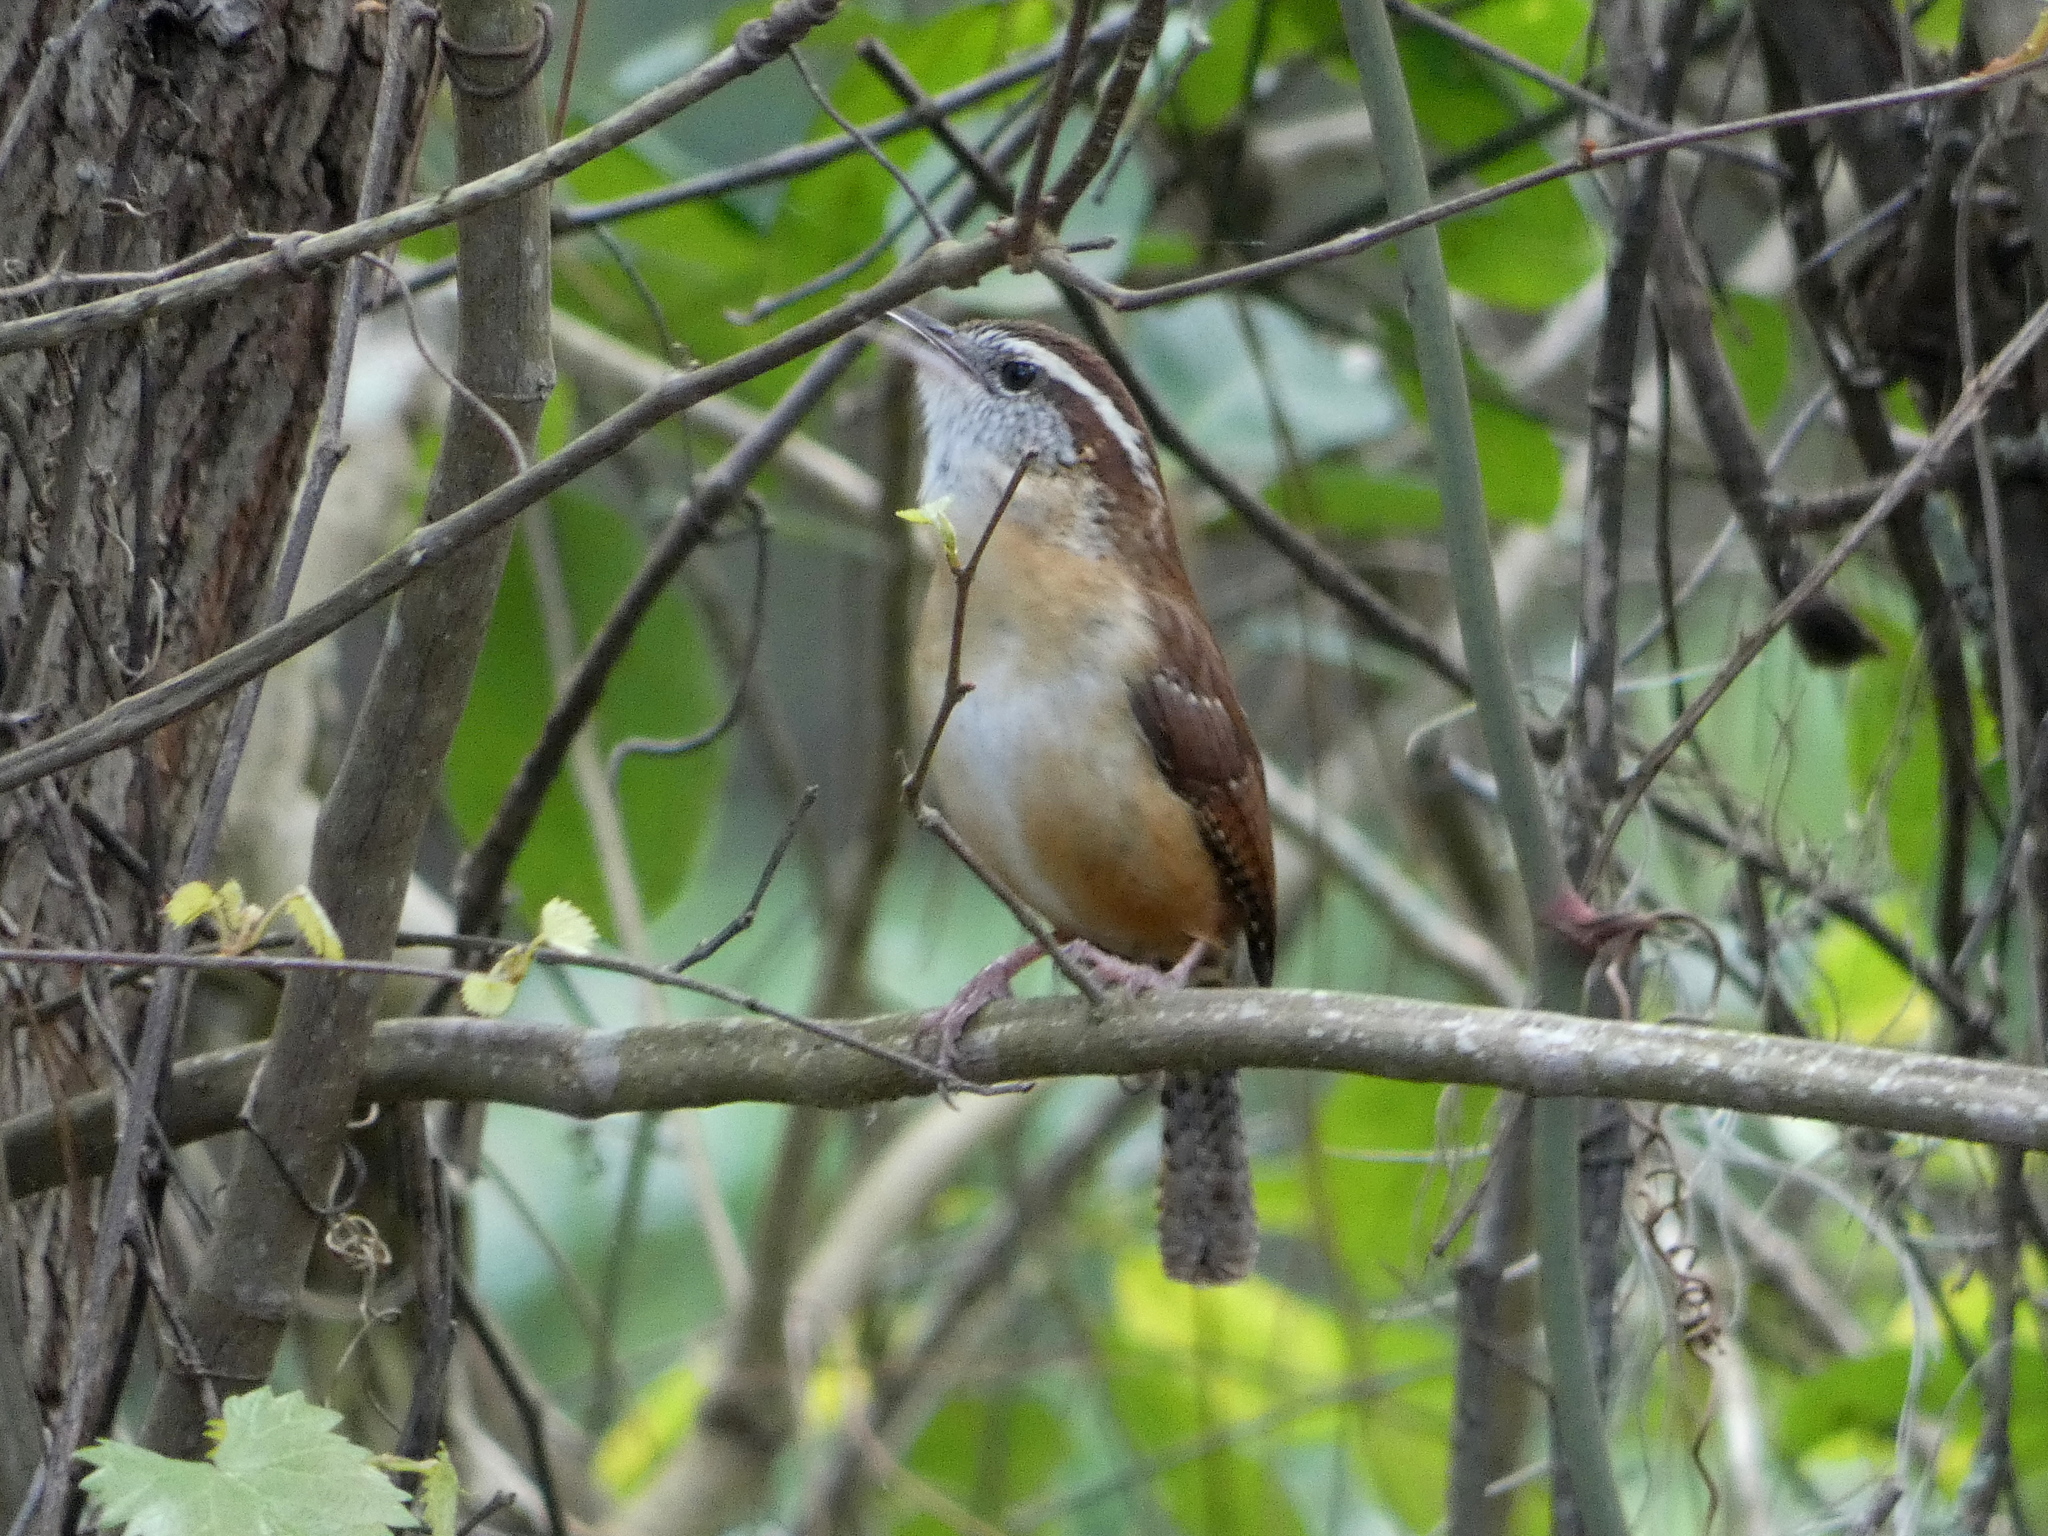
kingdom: Animalia
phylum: Chordata
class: Aves
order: Passeriformes
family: Troglodytidae
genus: Thryothorus
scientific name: Thryothorus ludovicianus
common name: Carolina wren
